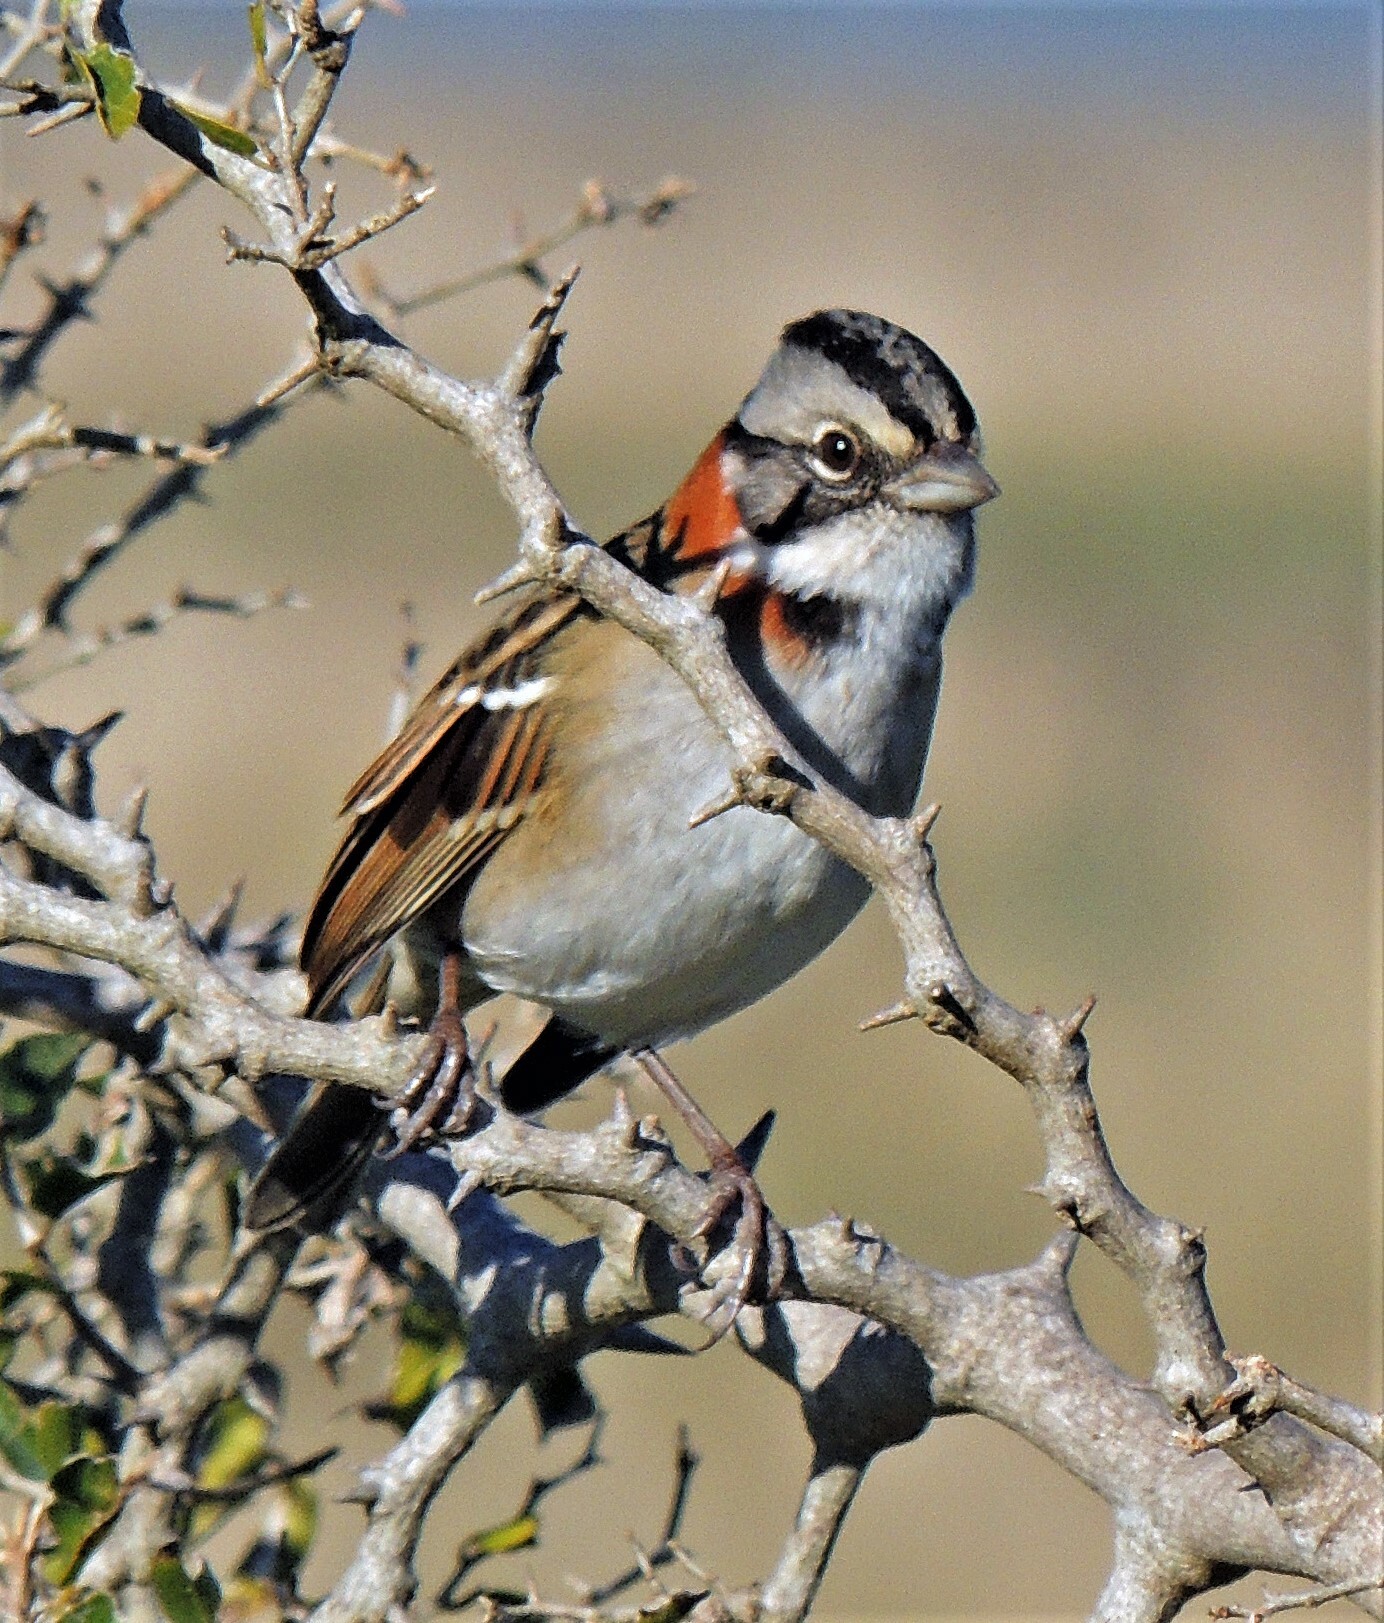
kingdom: Animalia
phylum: Chordata
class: Aves
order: Passeriformes
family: Passerellidae
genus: Zonotrichia
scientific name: Zonotrichia capensis
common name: Rufous-collared sparrow
